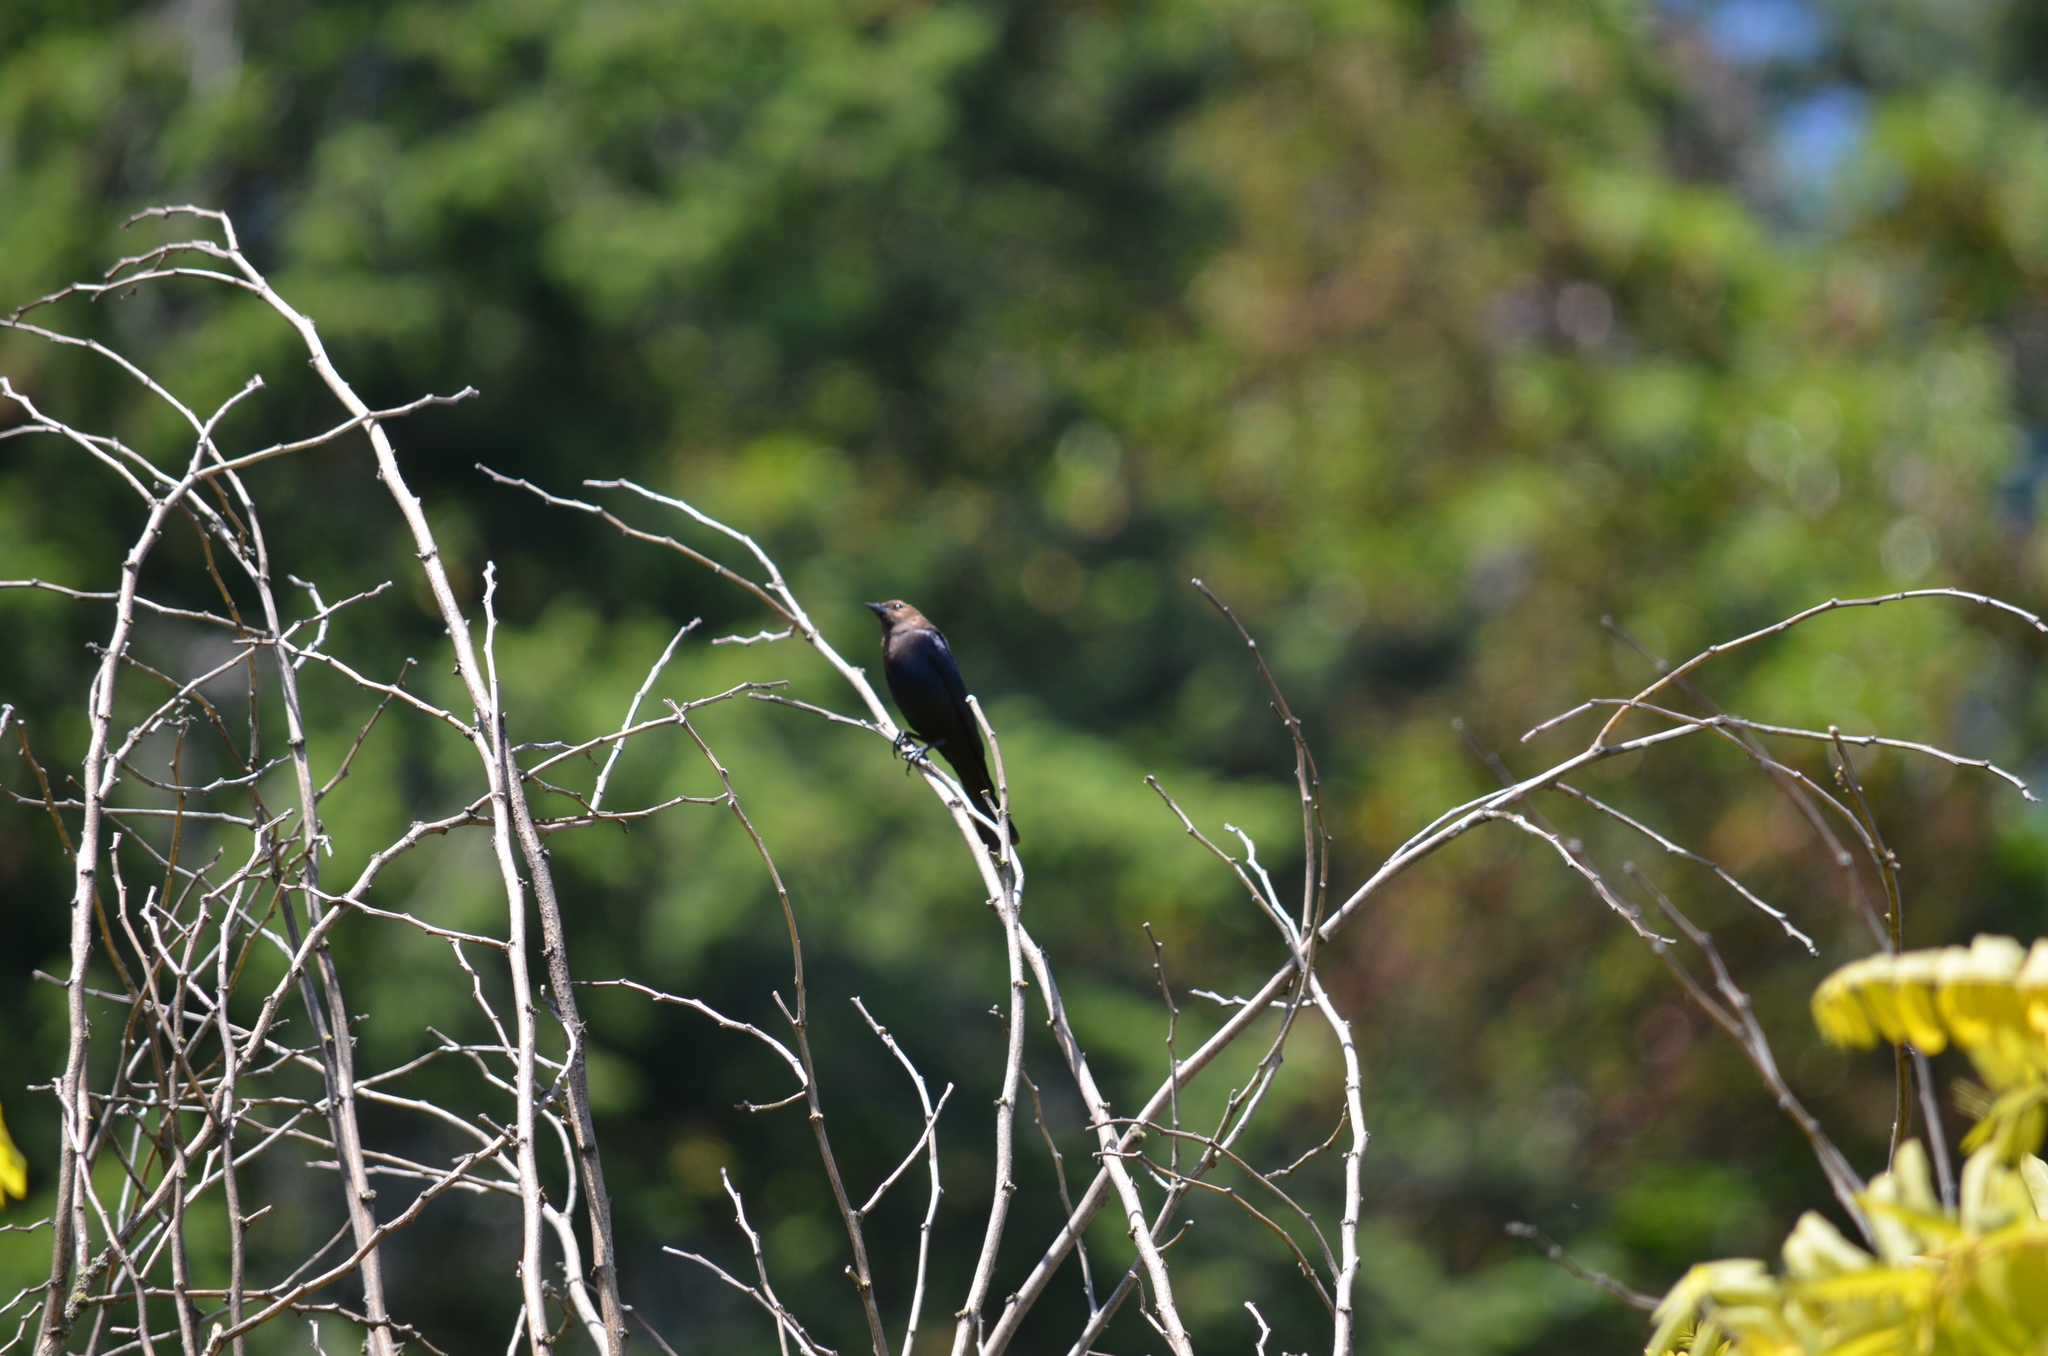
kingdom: Animalia
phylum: Chordata
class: Aves
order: Passeriformes
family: Icteridae
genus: Molothrus
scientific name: Molothrus ater
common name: Brown-headed cowbird
